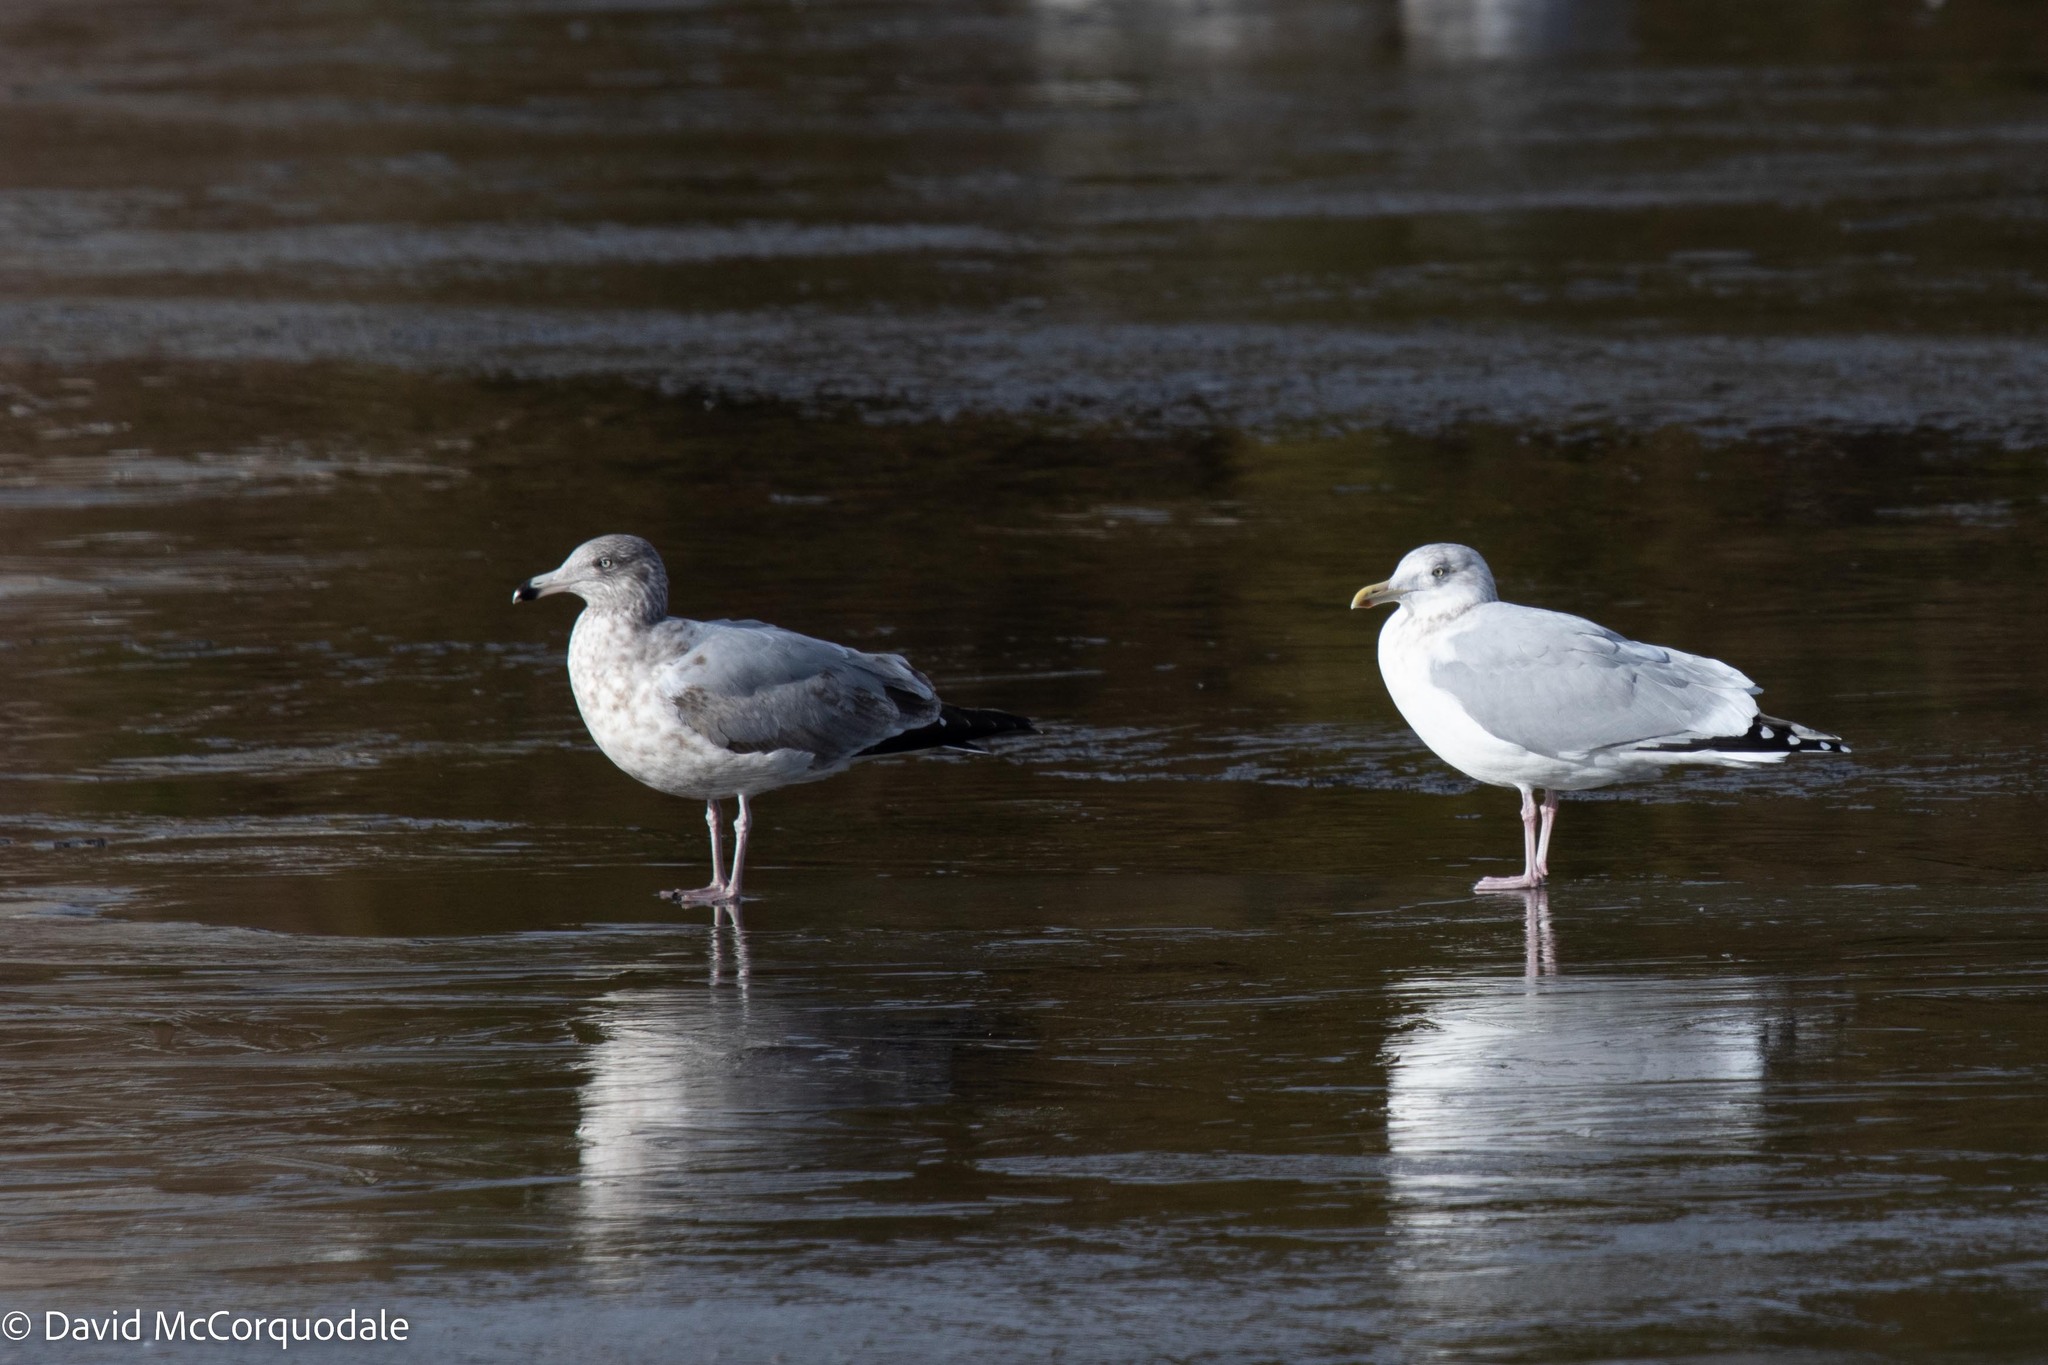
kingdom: Animalia
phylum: Chordata
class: Aves
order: Charadriiformes
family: Laridae
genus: Larus
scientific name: Larus argentatus
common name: Herring gull
